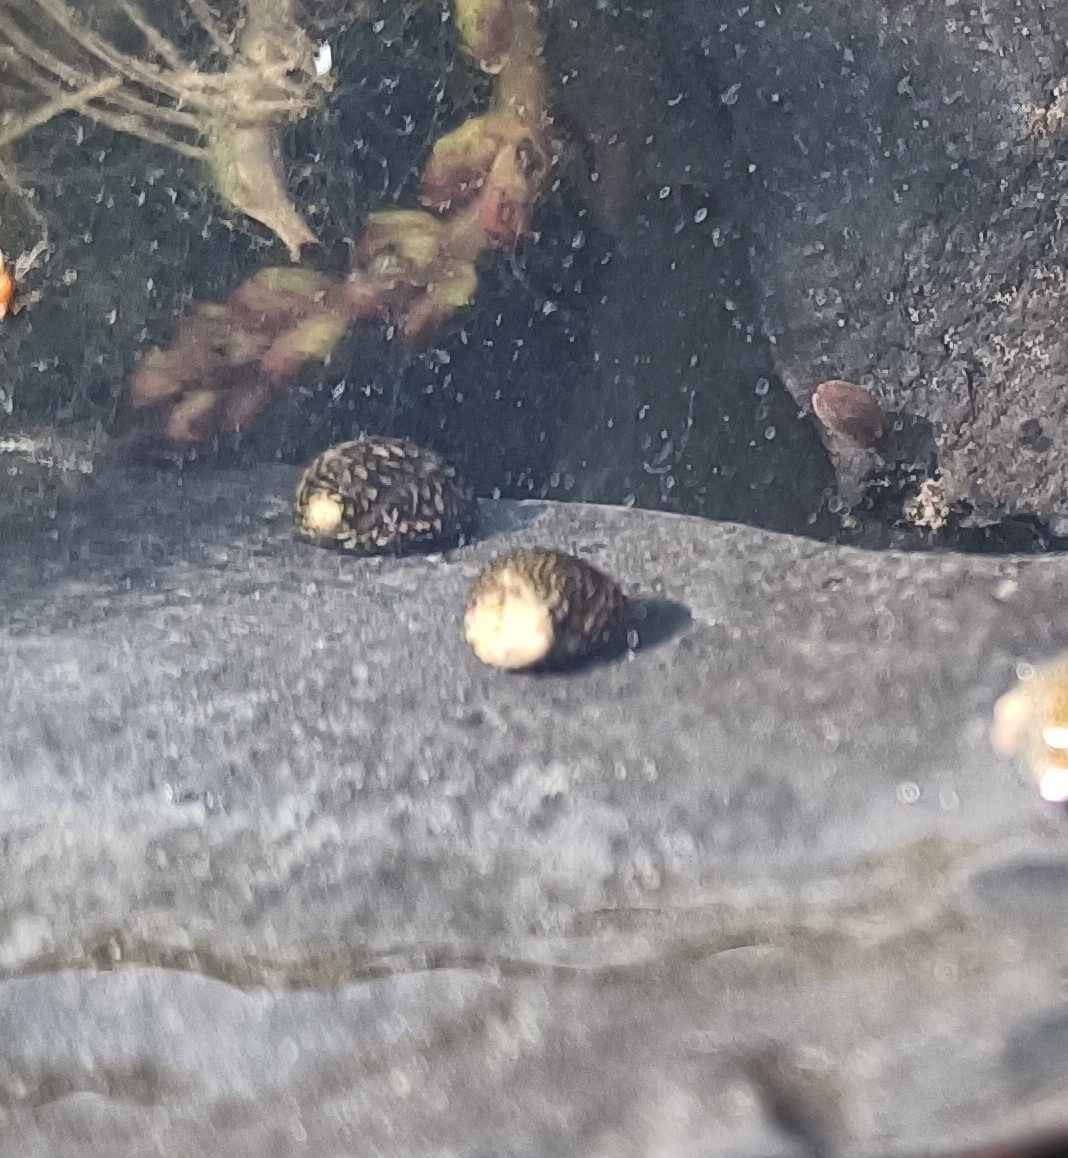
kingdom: Animalia
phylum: Mollusca
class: Gastropoda
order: Cycloneritida
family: Neritidae
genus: Theodoxus
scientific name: Theodoxus fluviatilis
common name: River nerite
